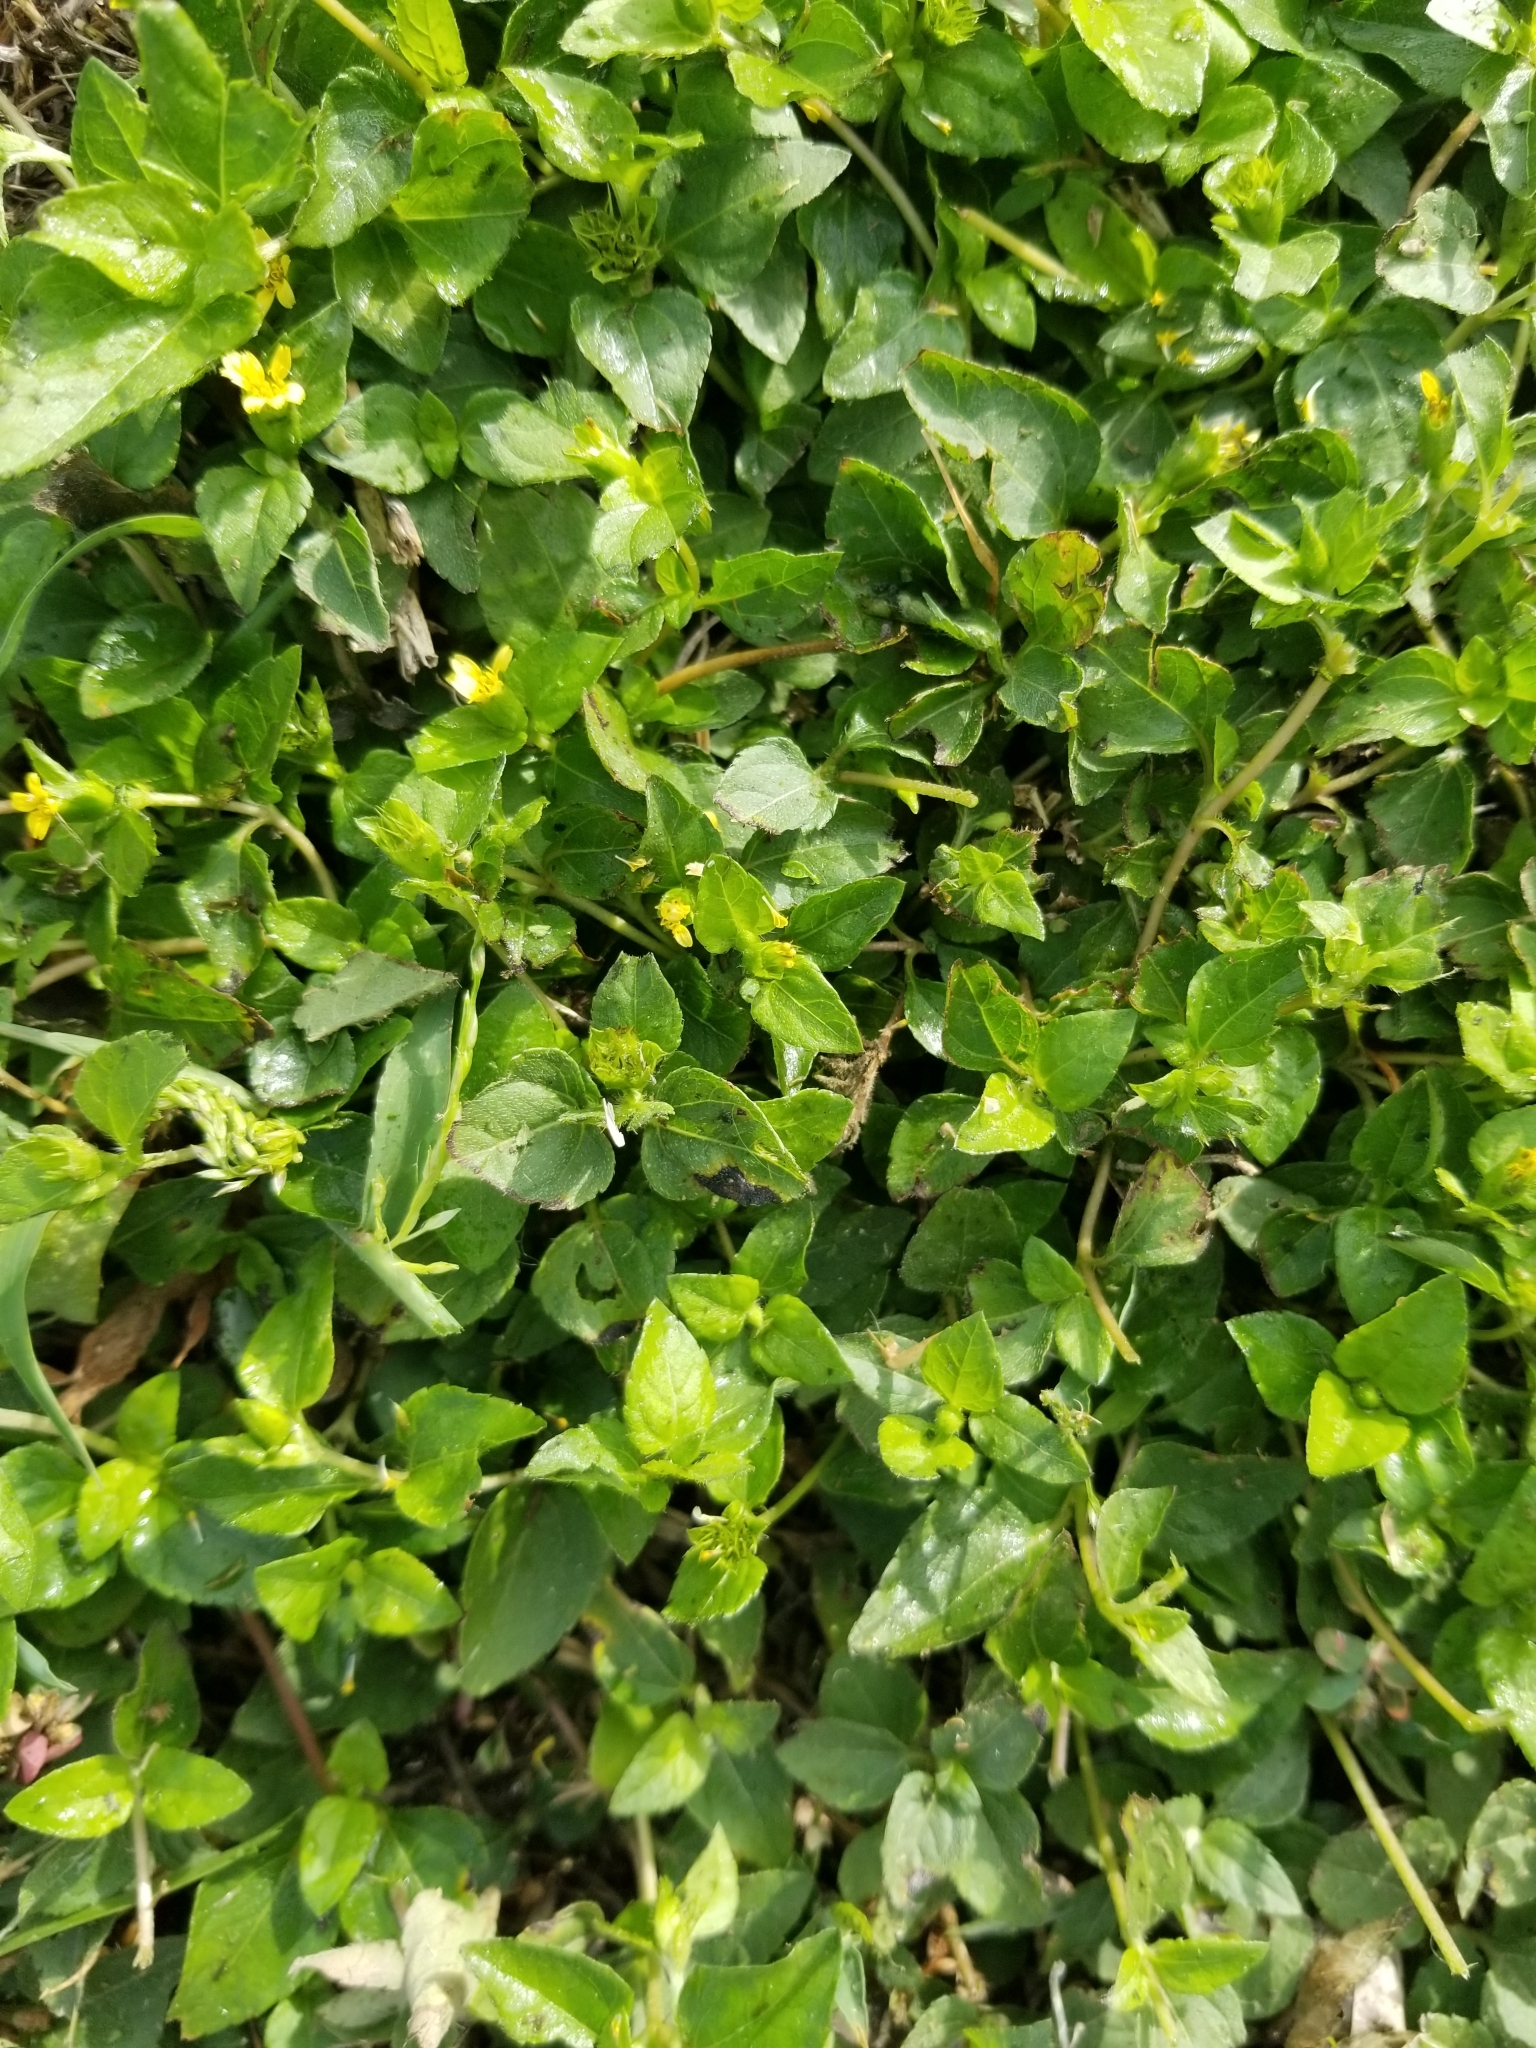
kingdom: Plantae
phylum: Tracheophyta
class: Magnoliopsida
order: Asterales
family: Asteraceae
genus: Calyptocarpus
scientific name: Calyptocarpus vialis
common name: Straggler daisy
